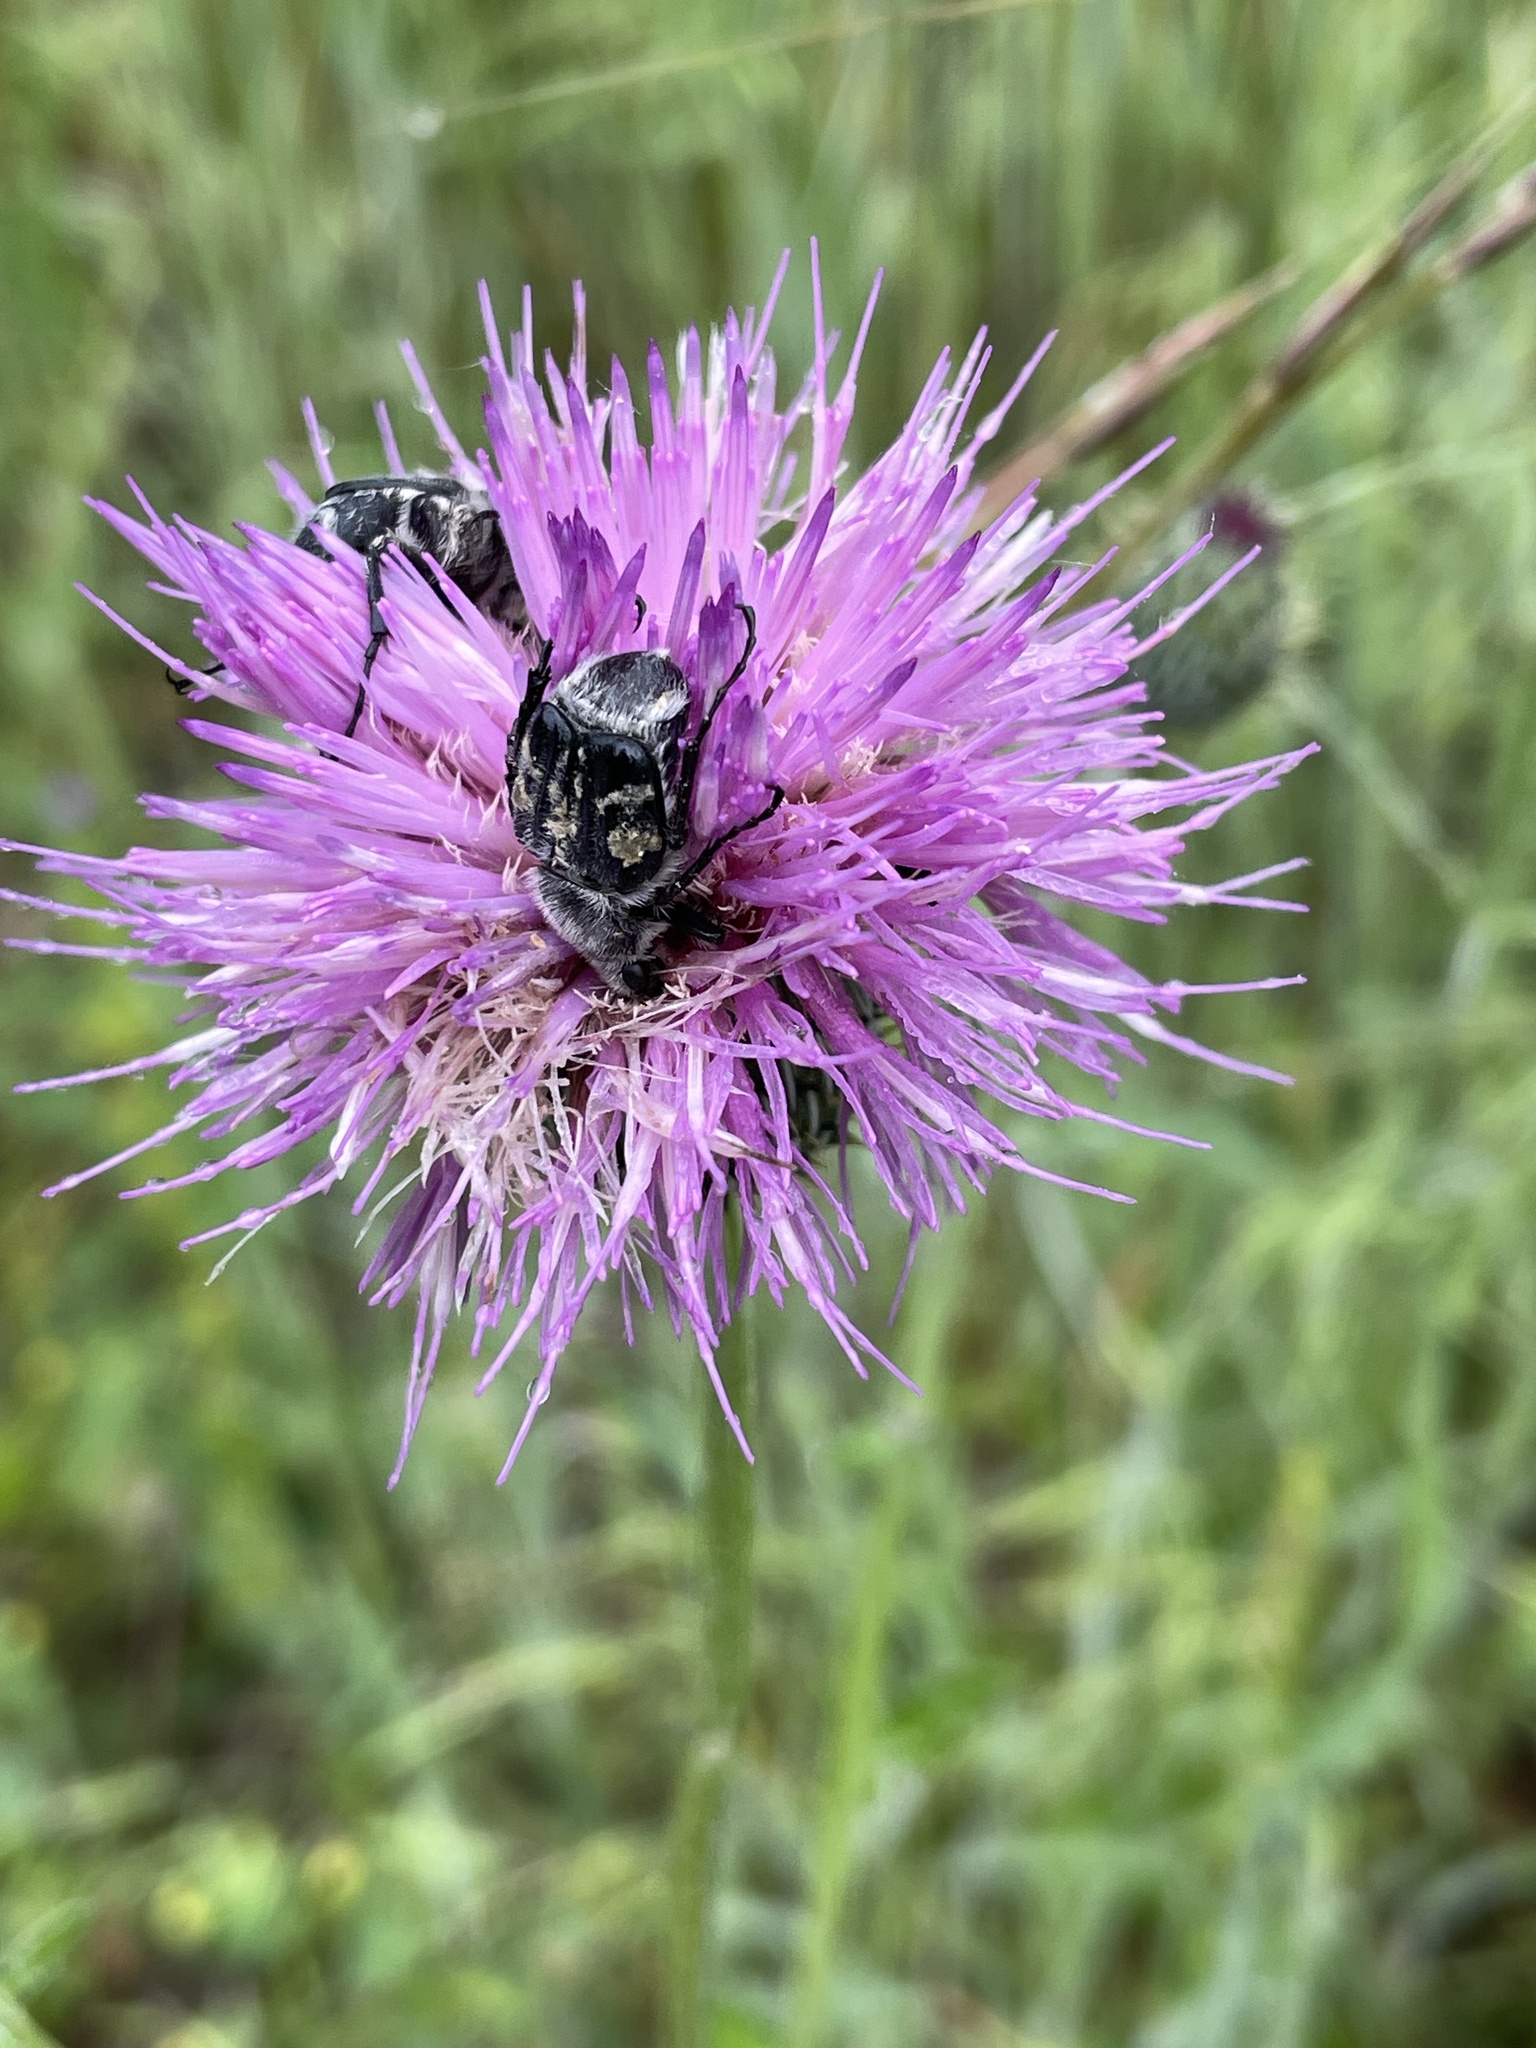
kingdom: Animalia
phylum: Arthropoda
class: Insecta
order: Coleoptera
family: Scarabaeidae
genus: Trichiotinus
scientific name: Trichiotinus texanus
